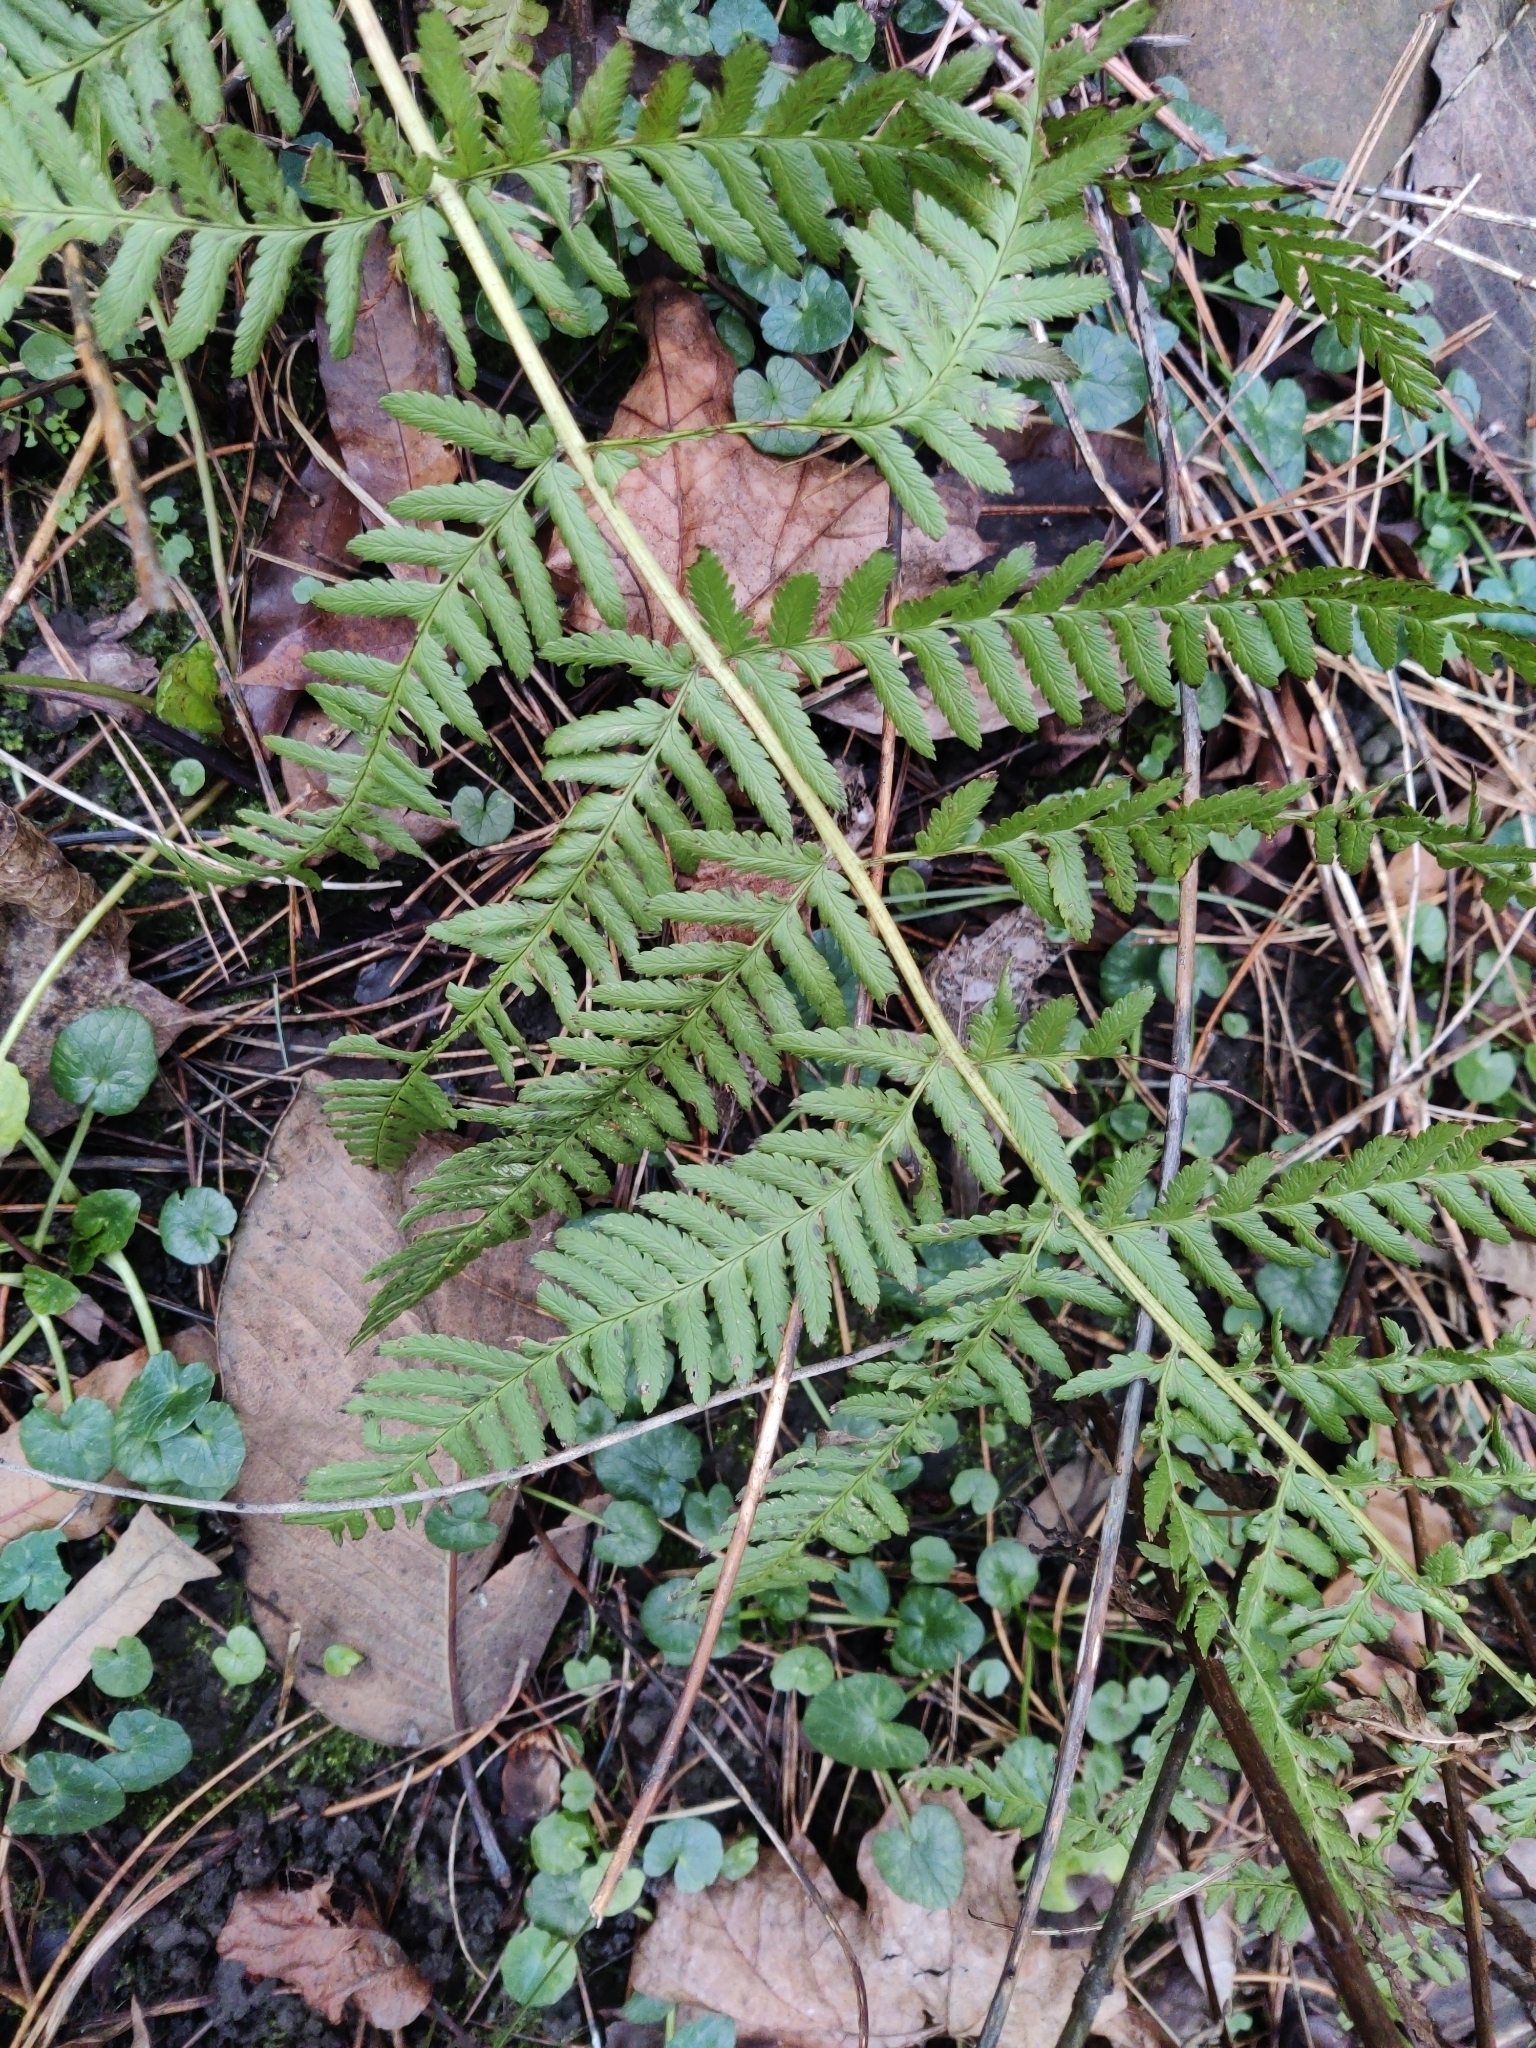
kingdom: Plantae
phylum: Tracheophyta
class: Polypodiopsida
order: Polypodiales
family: Dryopteridaceae
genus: Dryopteris
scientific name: Dryopteris filix-mas
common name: Male fern
